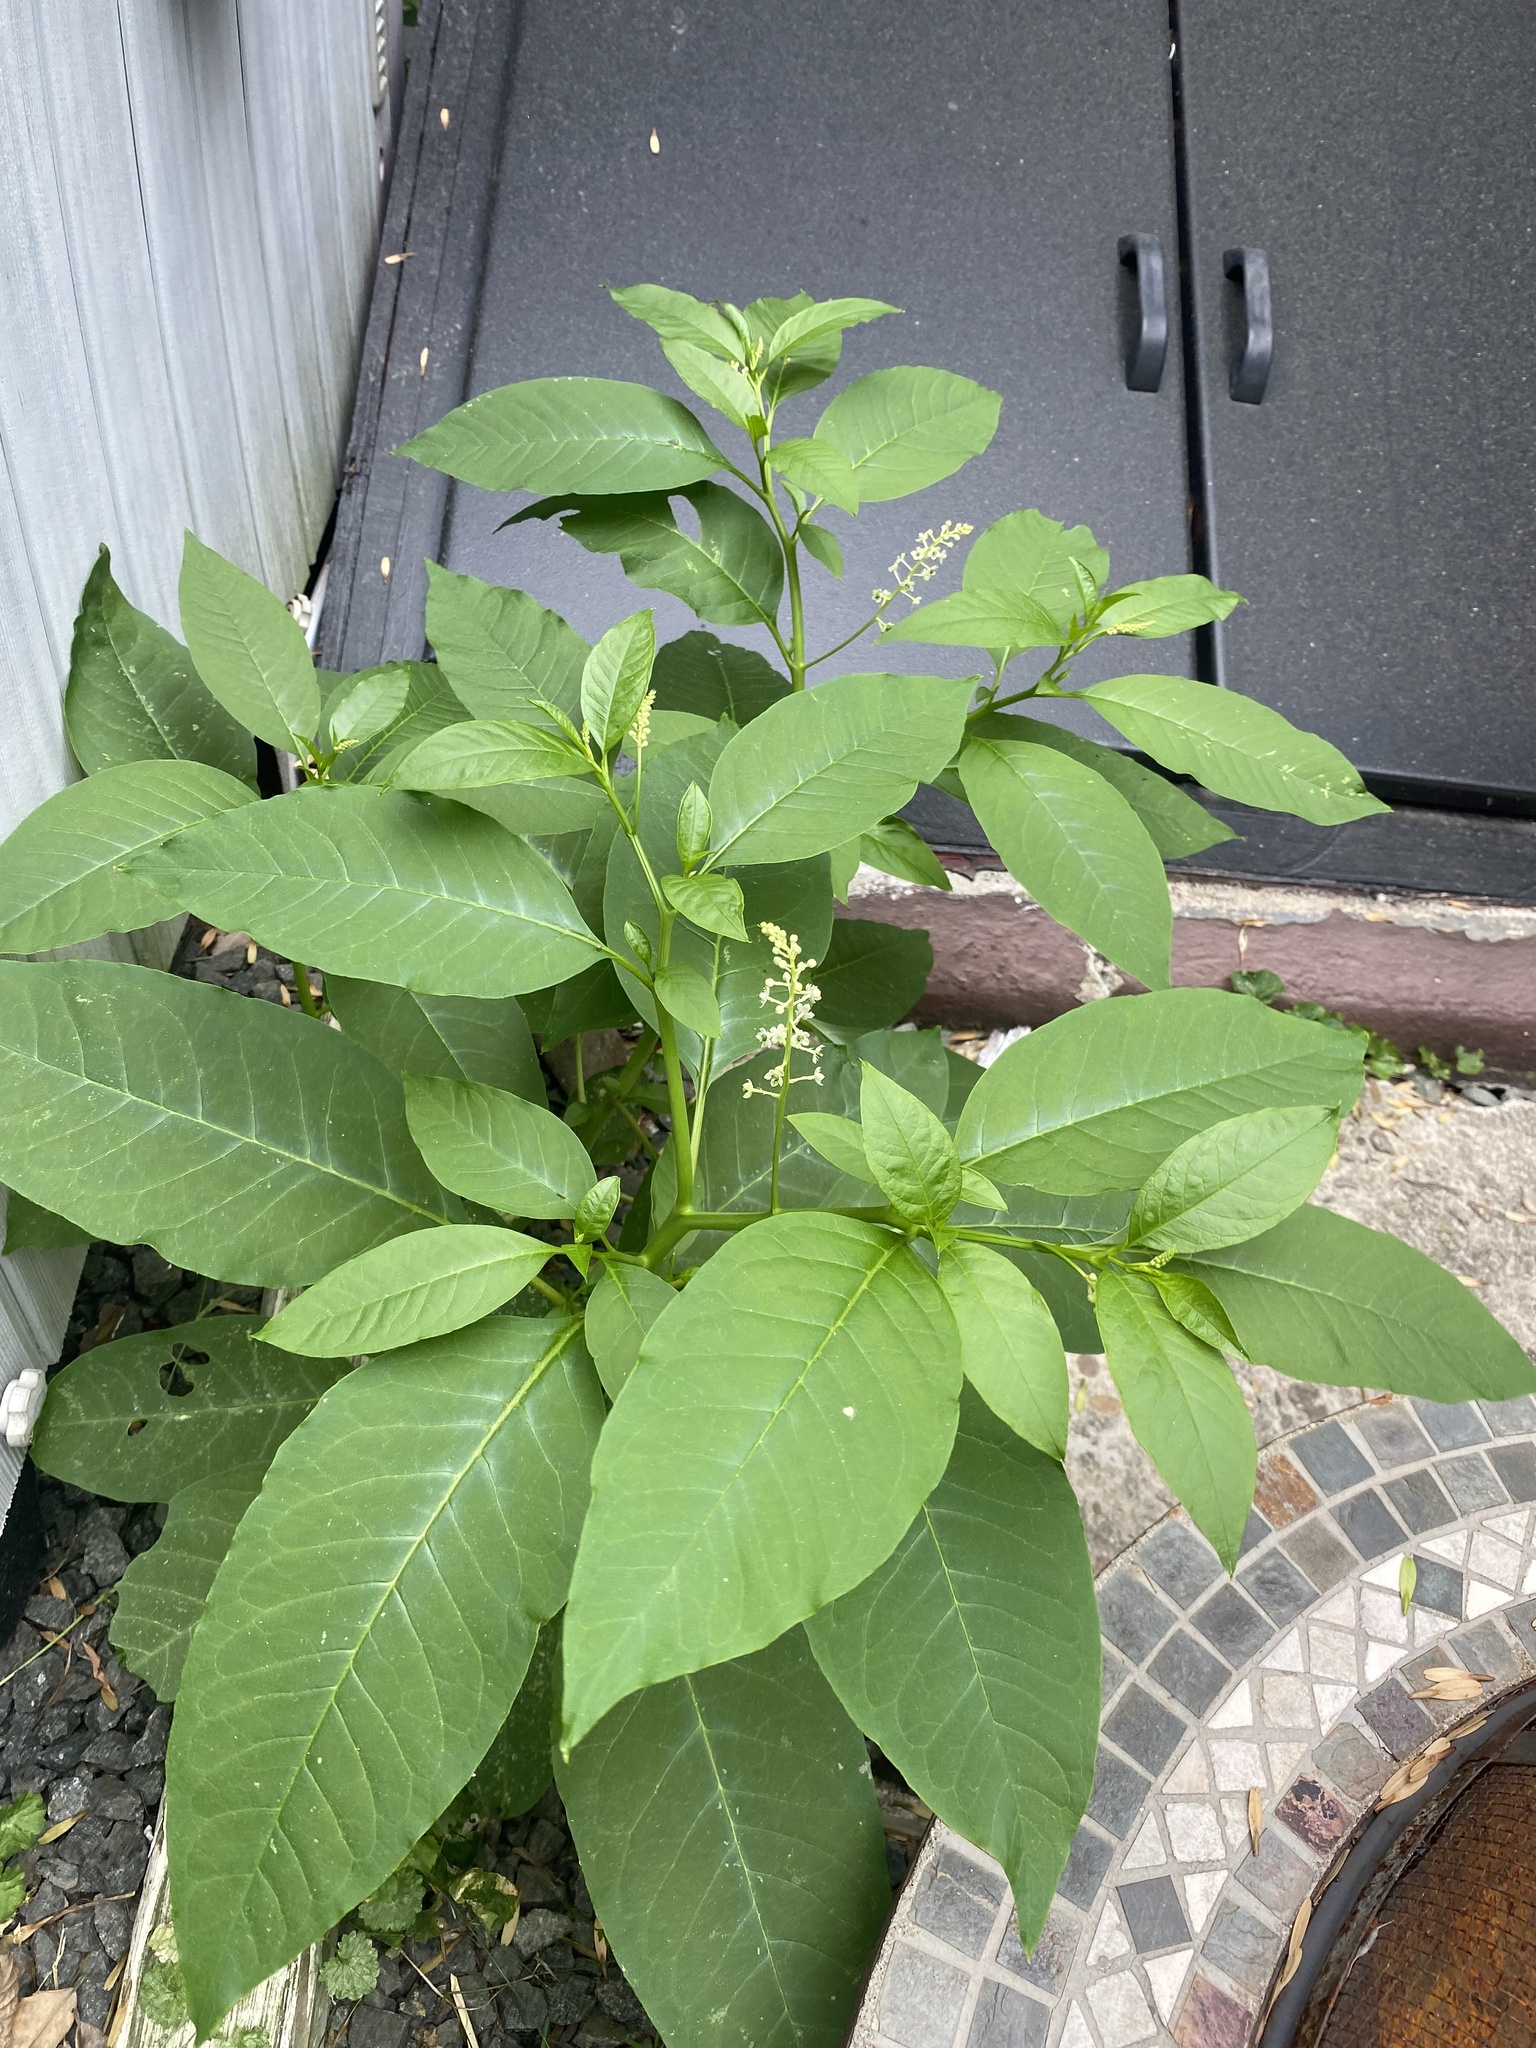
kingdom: Plantae
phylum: Tracheophyta
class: Magnoliopsida
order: Caryophyllales
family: Phytolaccaceae
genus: Phytolacca
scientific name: Phytolacca americana
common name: American pokeweed
